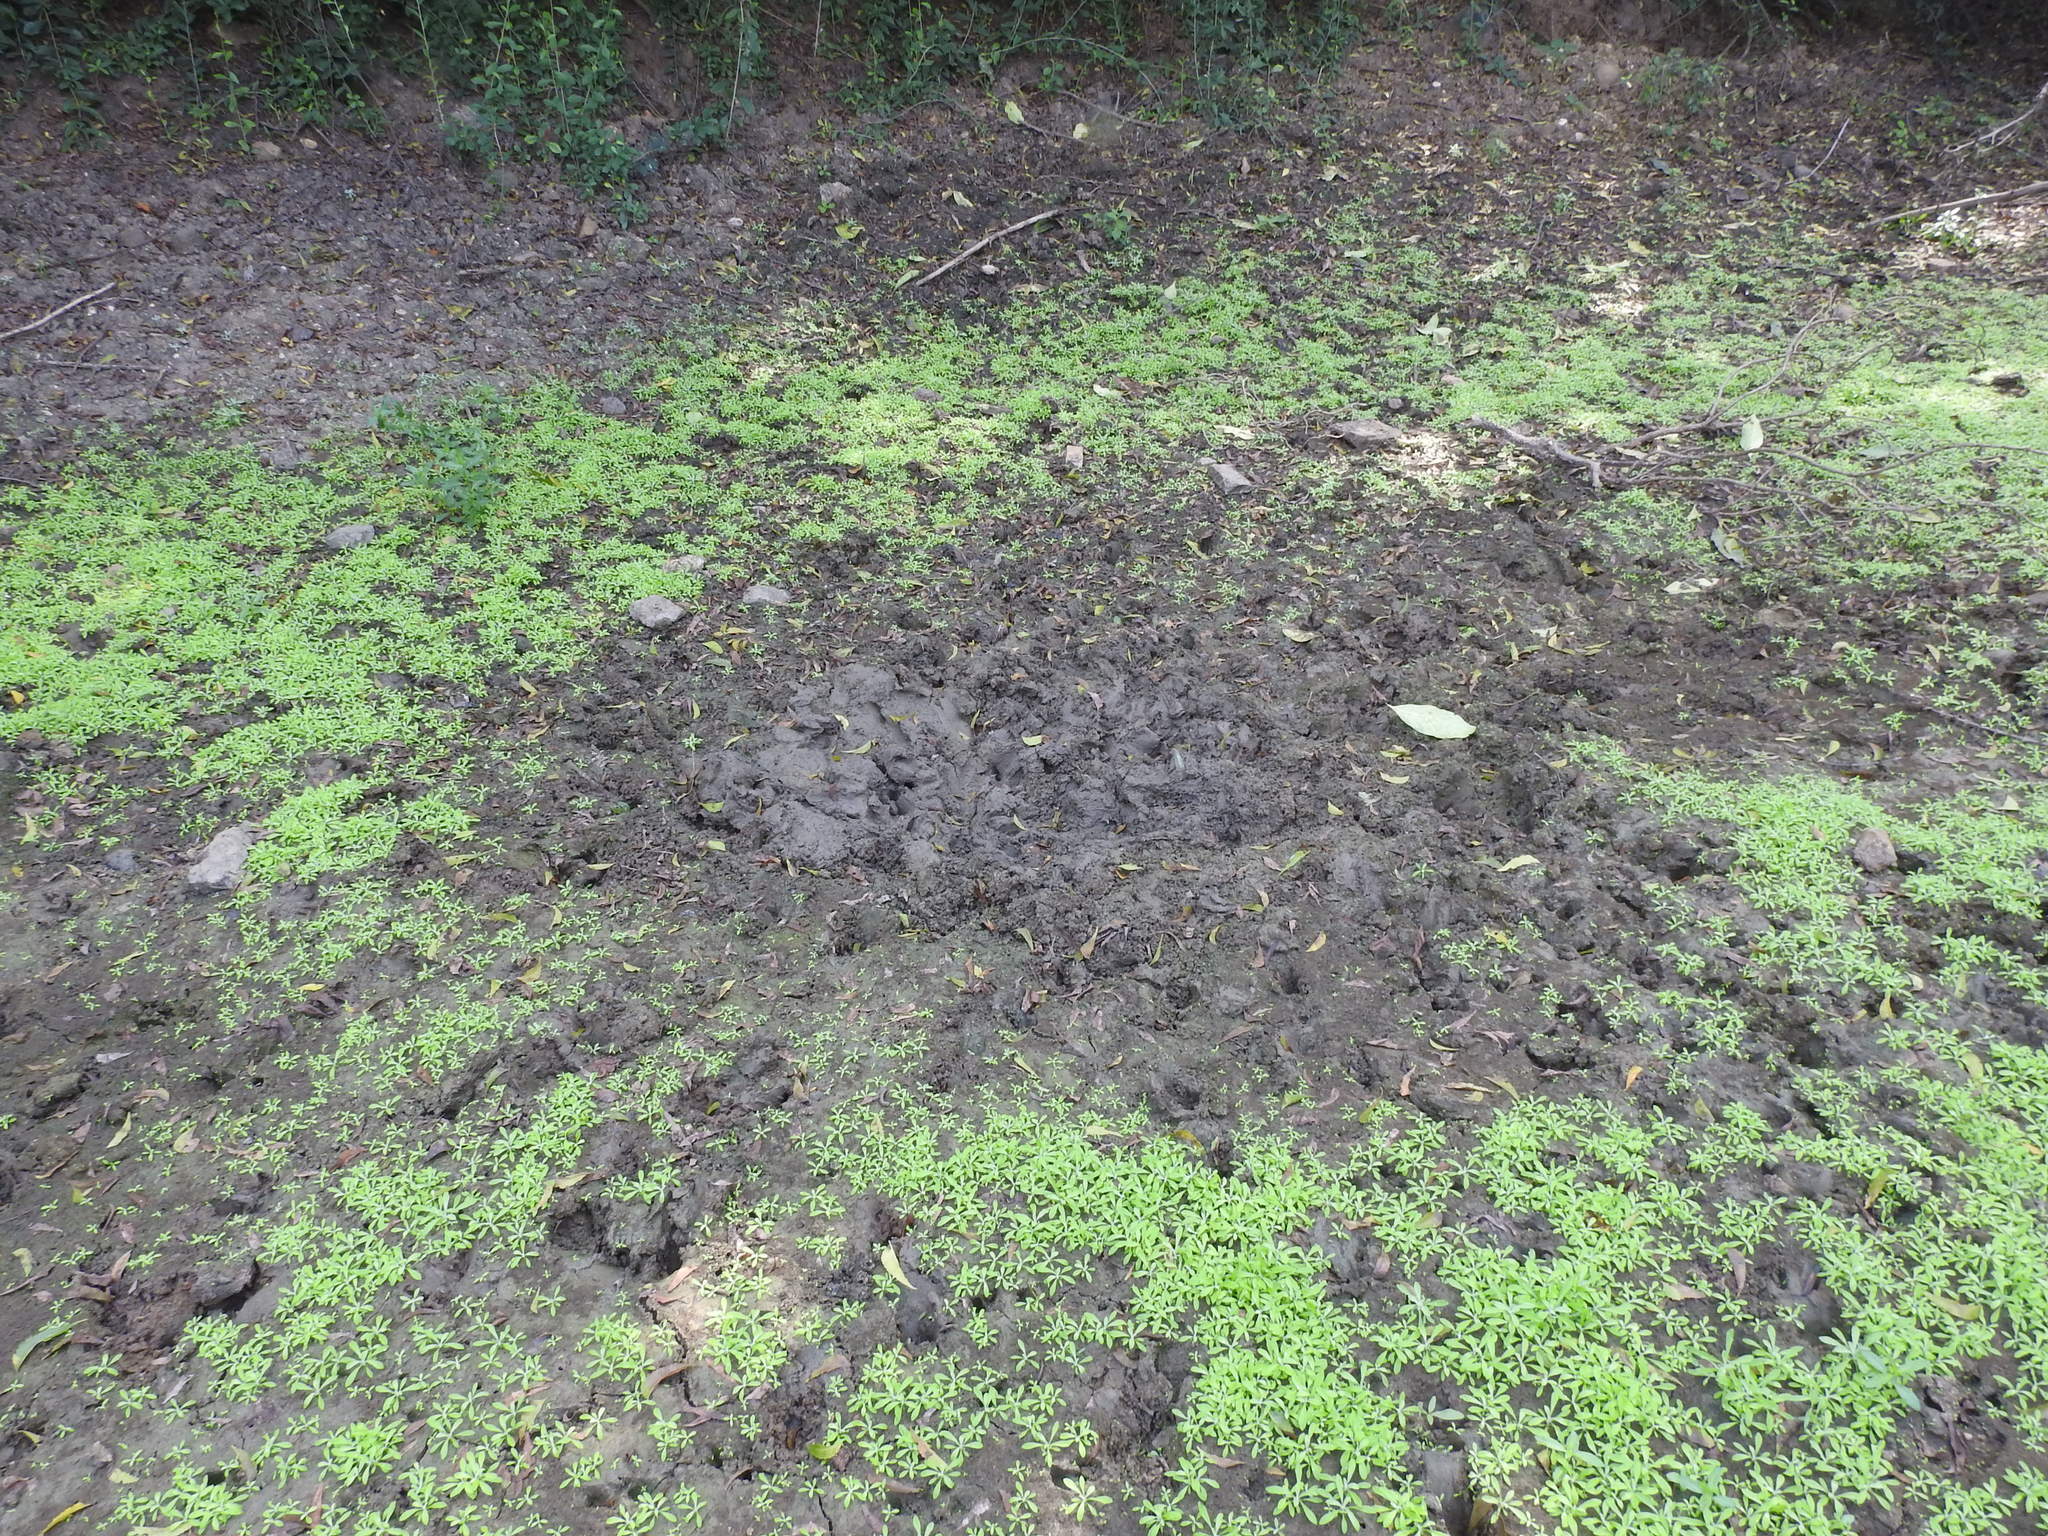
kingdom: Animalia
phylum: Chordata
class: Mammalia
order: Artiodactyla
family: Suidae
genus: Sus
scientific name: Sus scrofa
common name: Wild boar
